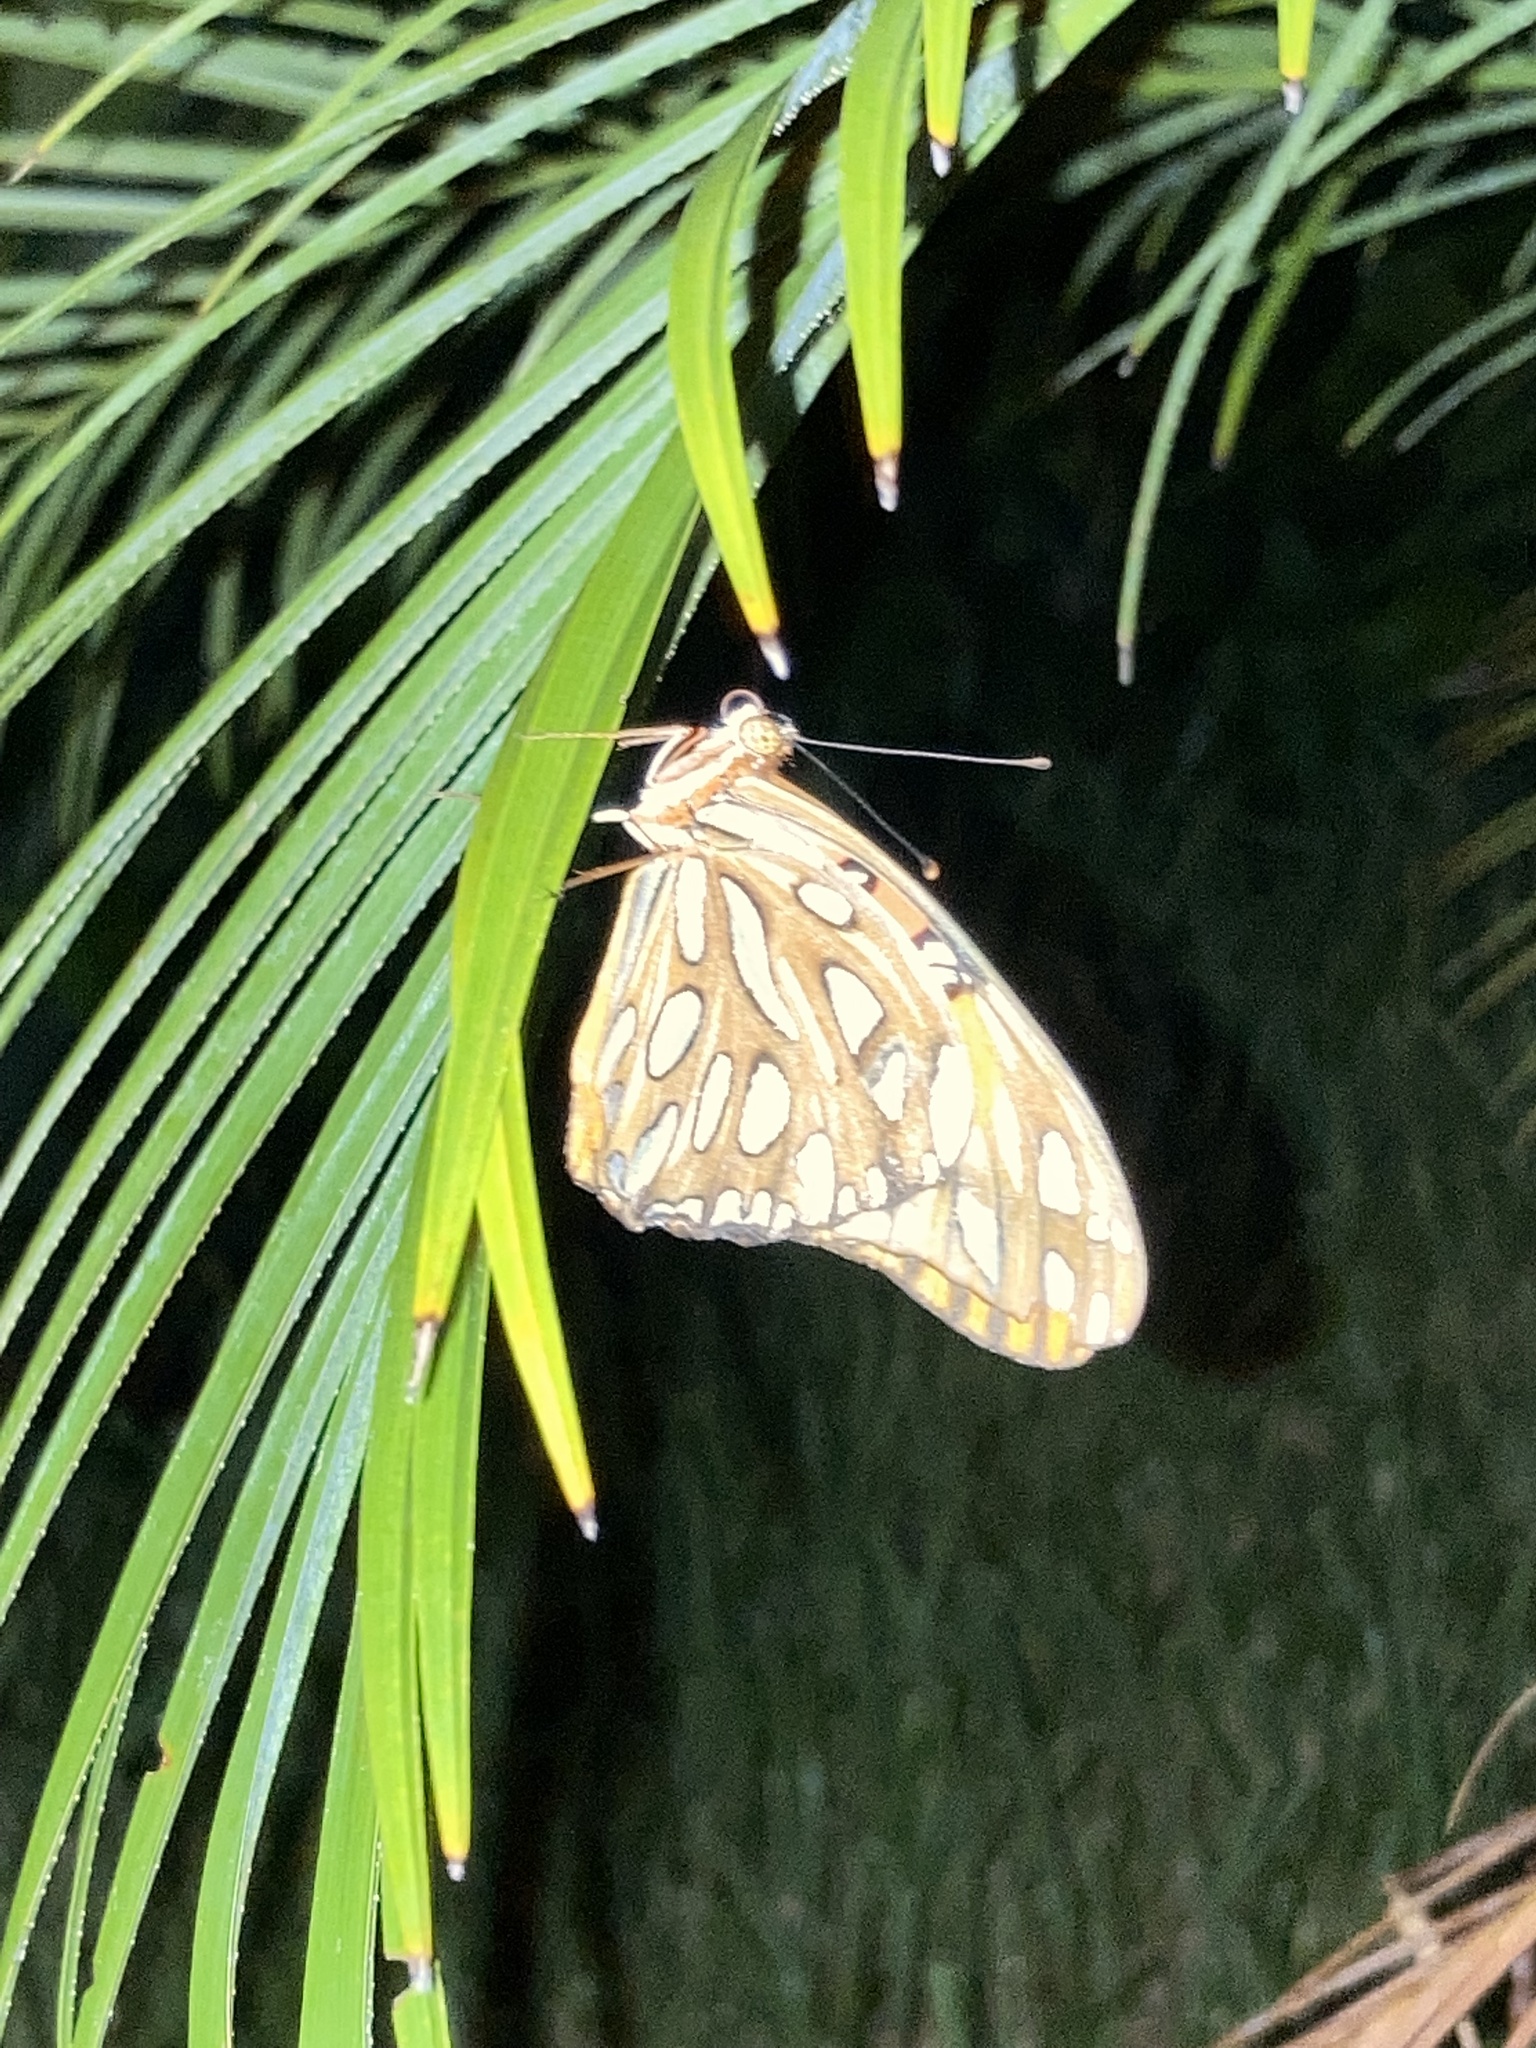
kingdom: Animalia
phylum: Arthropoda
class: Insecta
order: Lepidoptera
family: Nymphalidae
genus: Dione
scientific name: Dione vanillae
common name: Gulf fritillary
